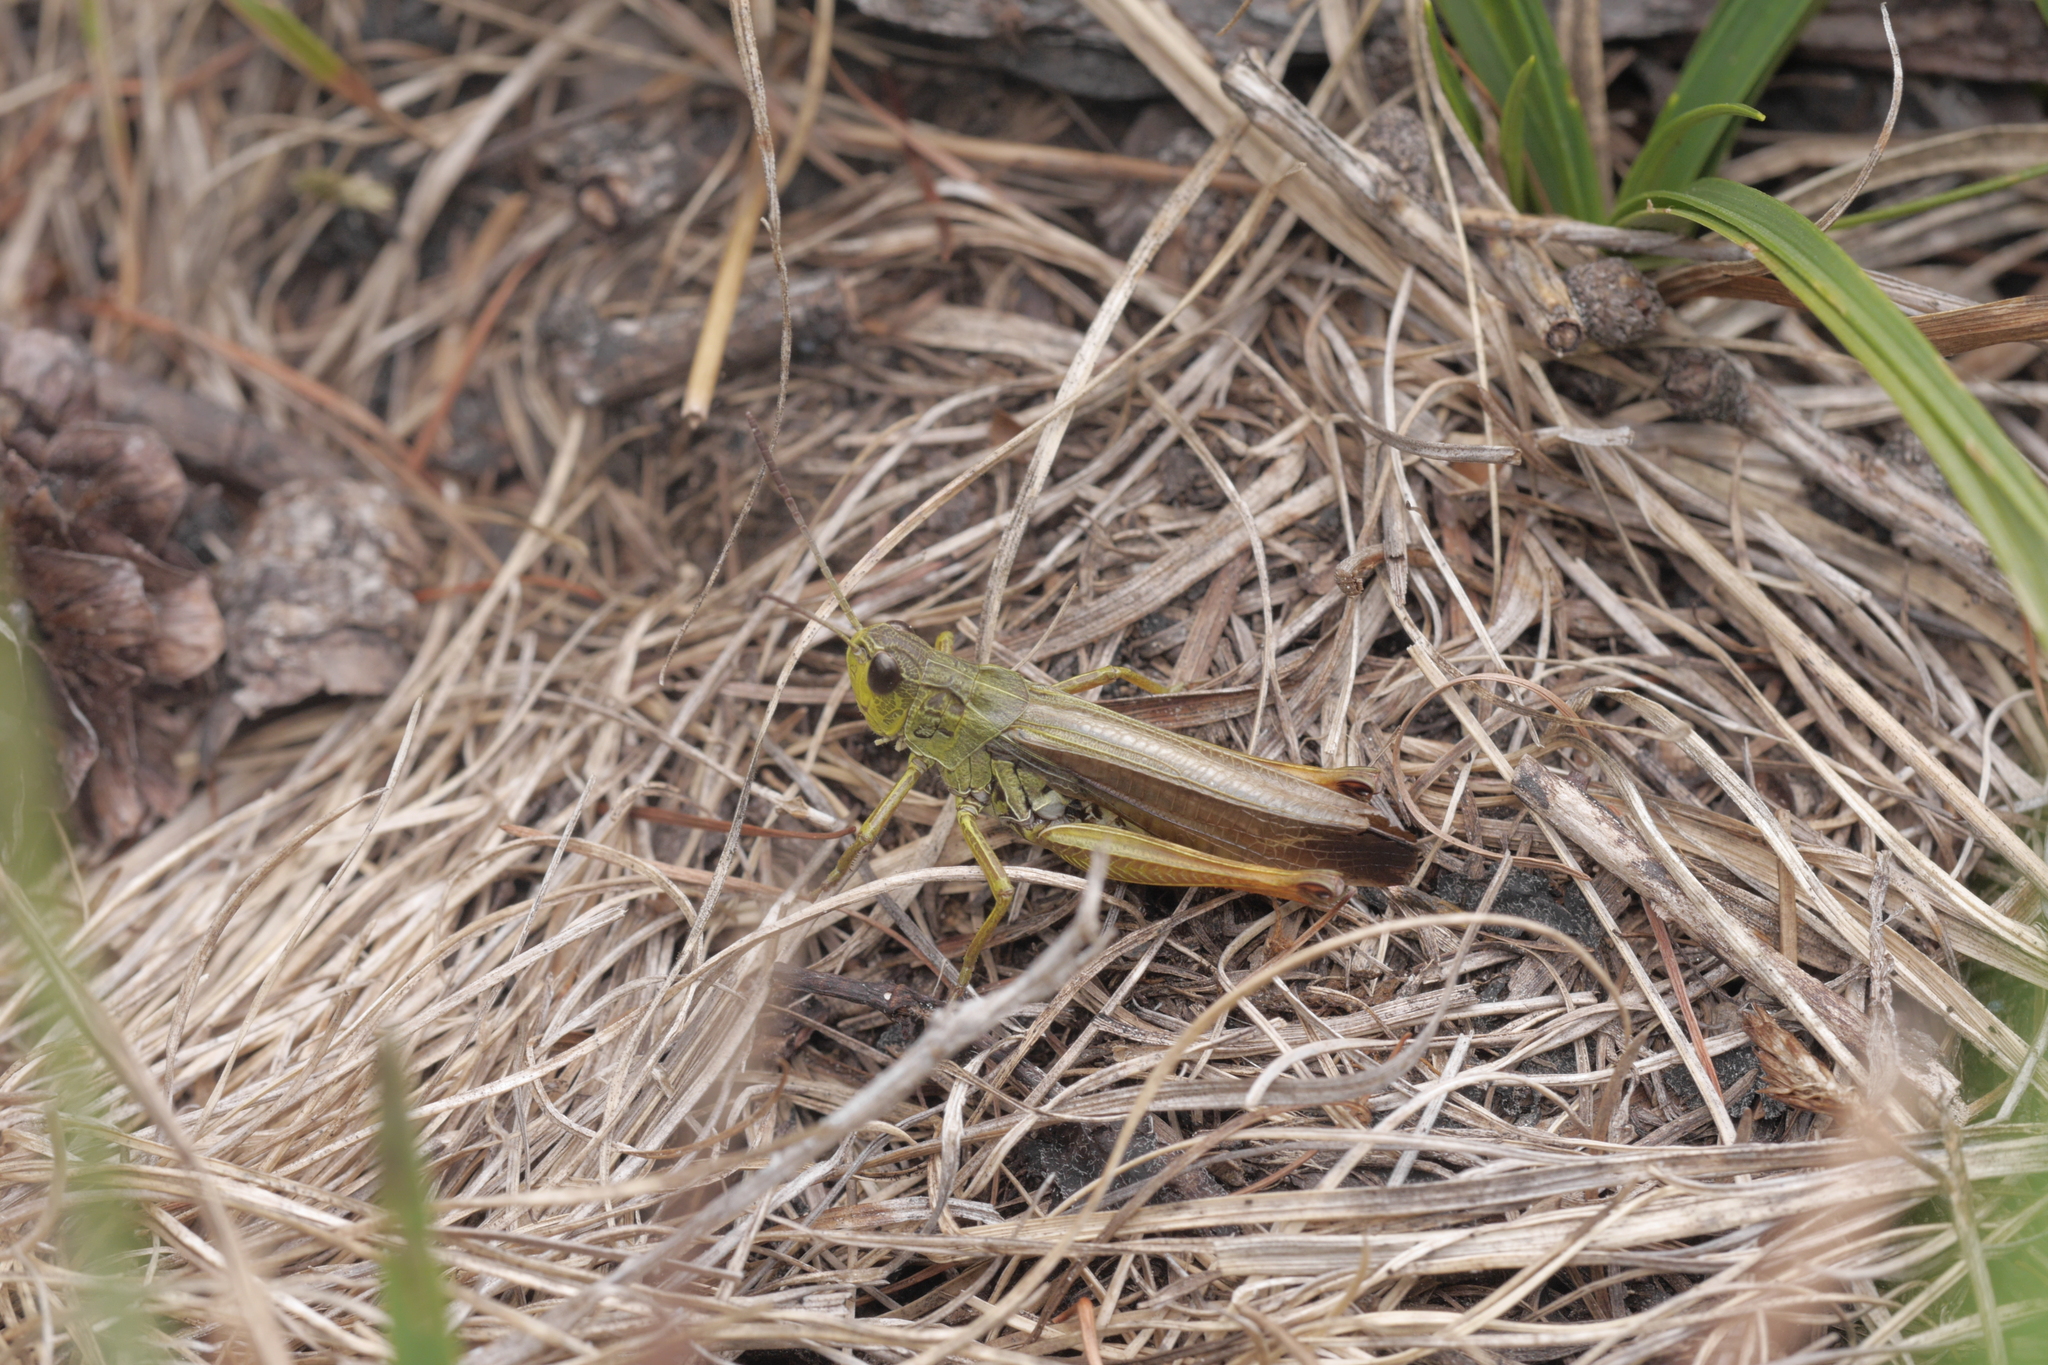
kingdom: Animalia
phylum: Arthropoda
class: Insecta
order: Orthoptera
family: Acrididae
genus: Stauroderus
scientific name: Stauroderus scalaris
